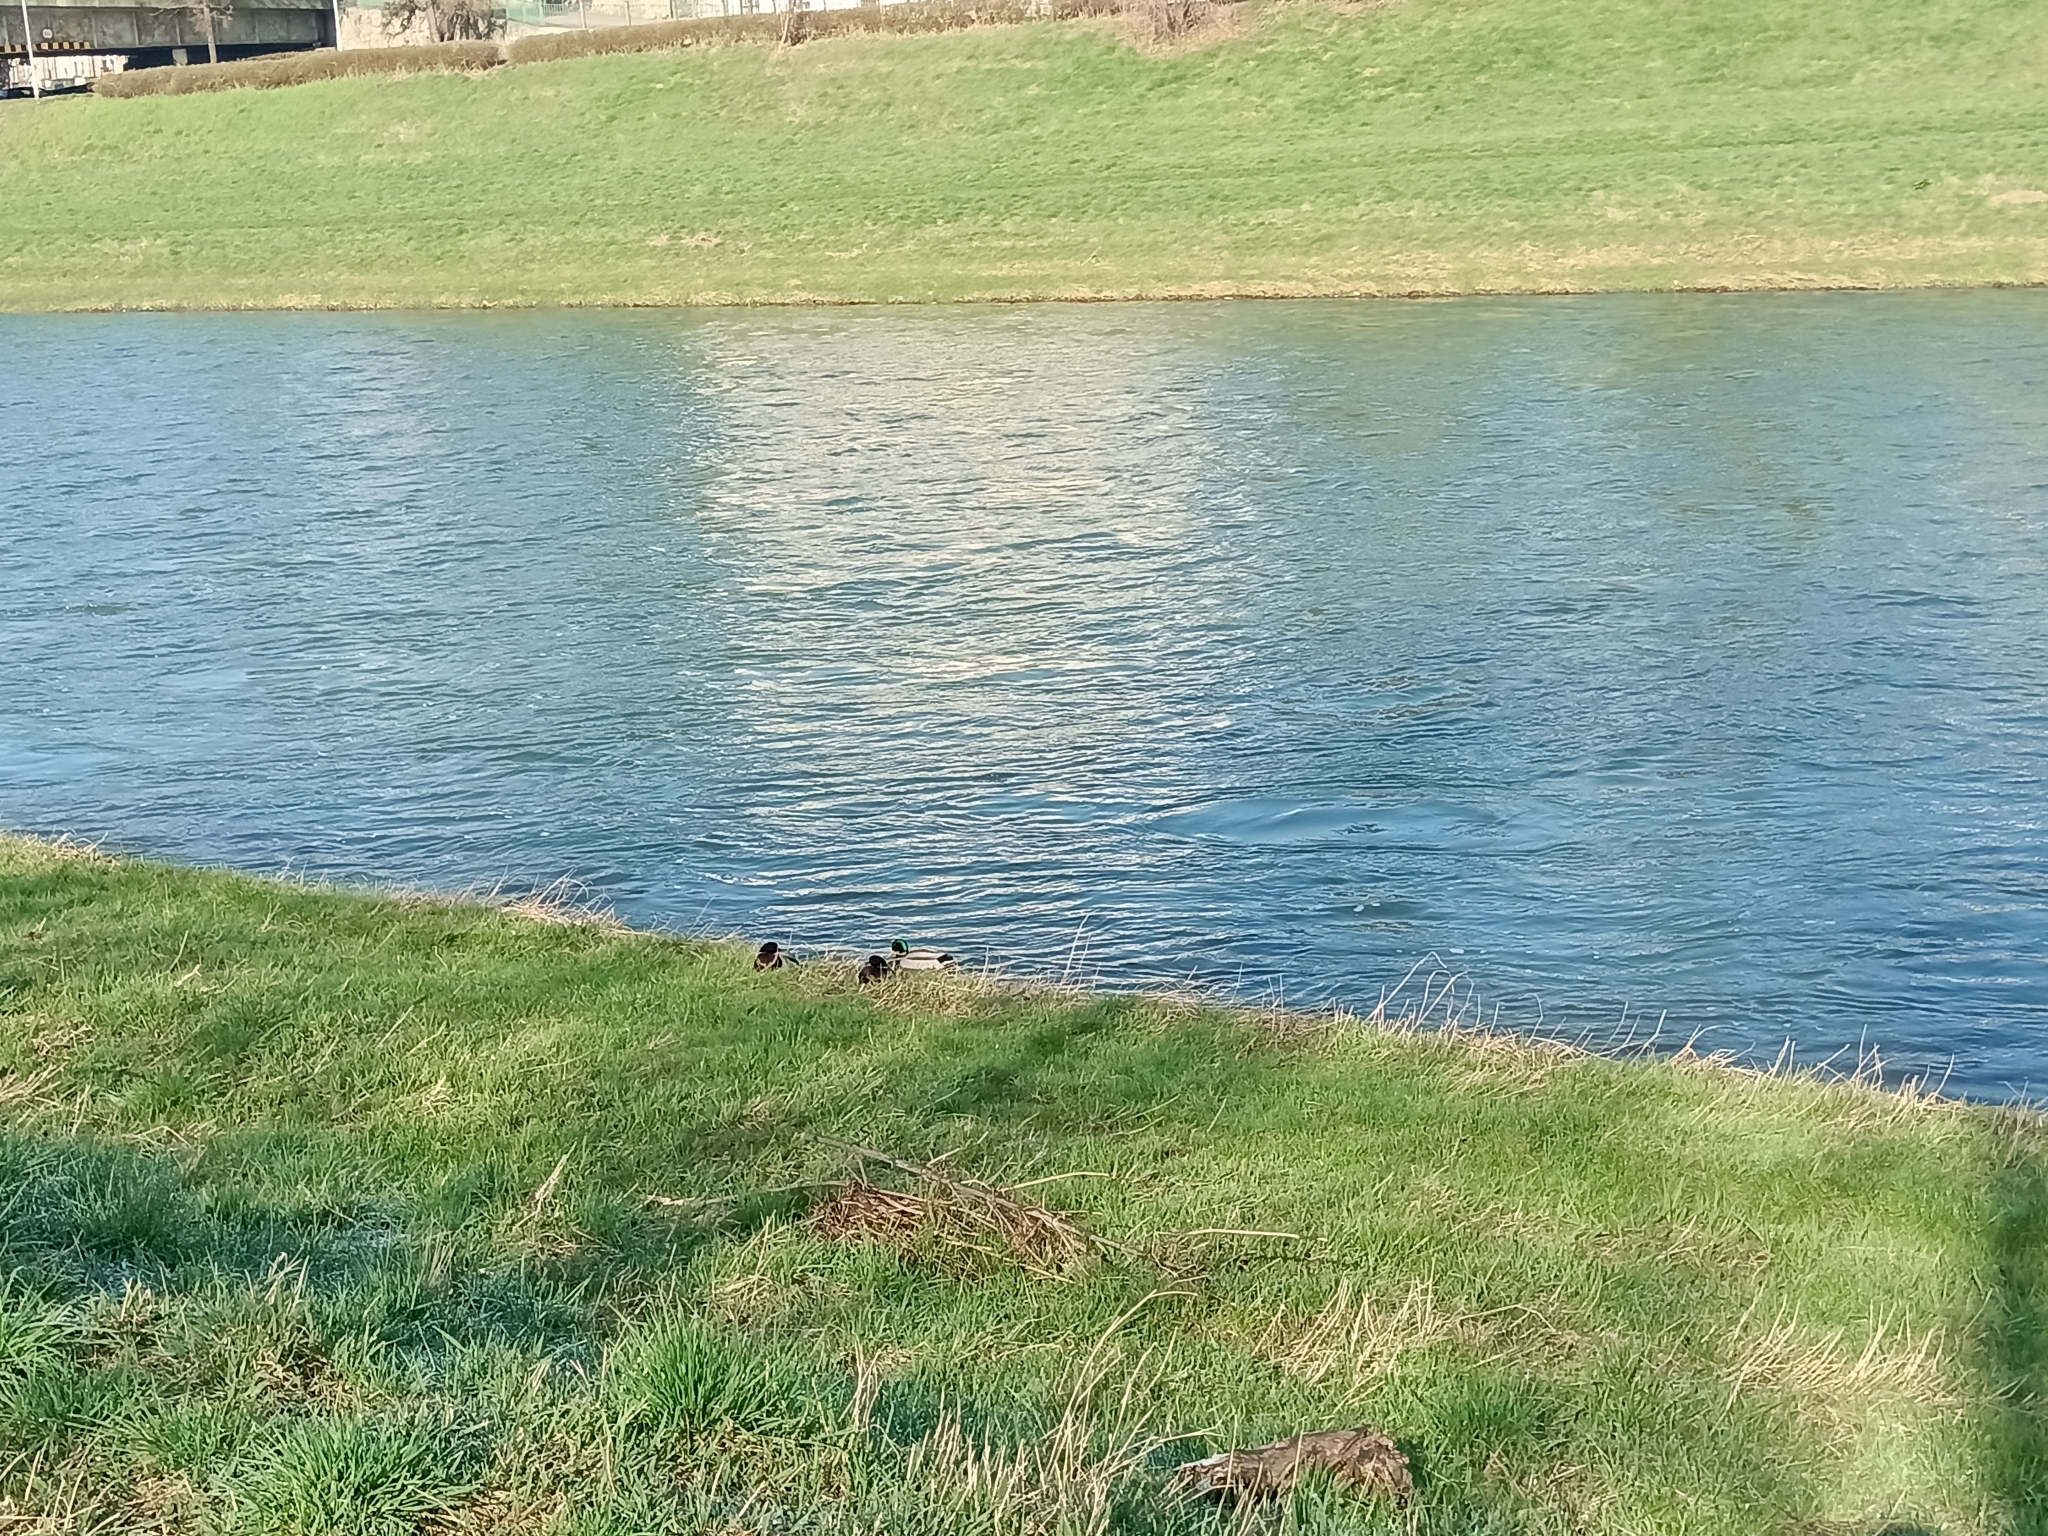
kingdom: Animalia
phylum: Chordata
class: Aves
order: Anseriformes
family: Anatidae
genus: Anas
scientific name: Anas platyrhynchos
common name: Mallard
